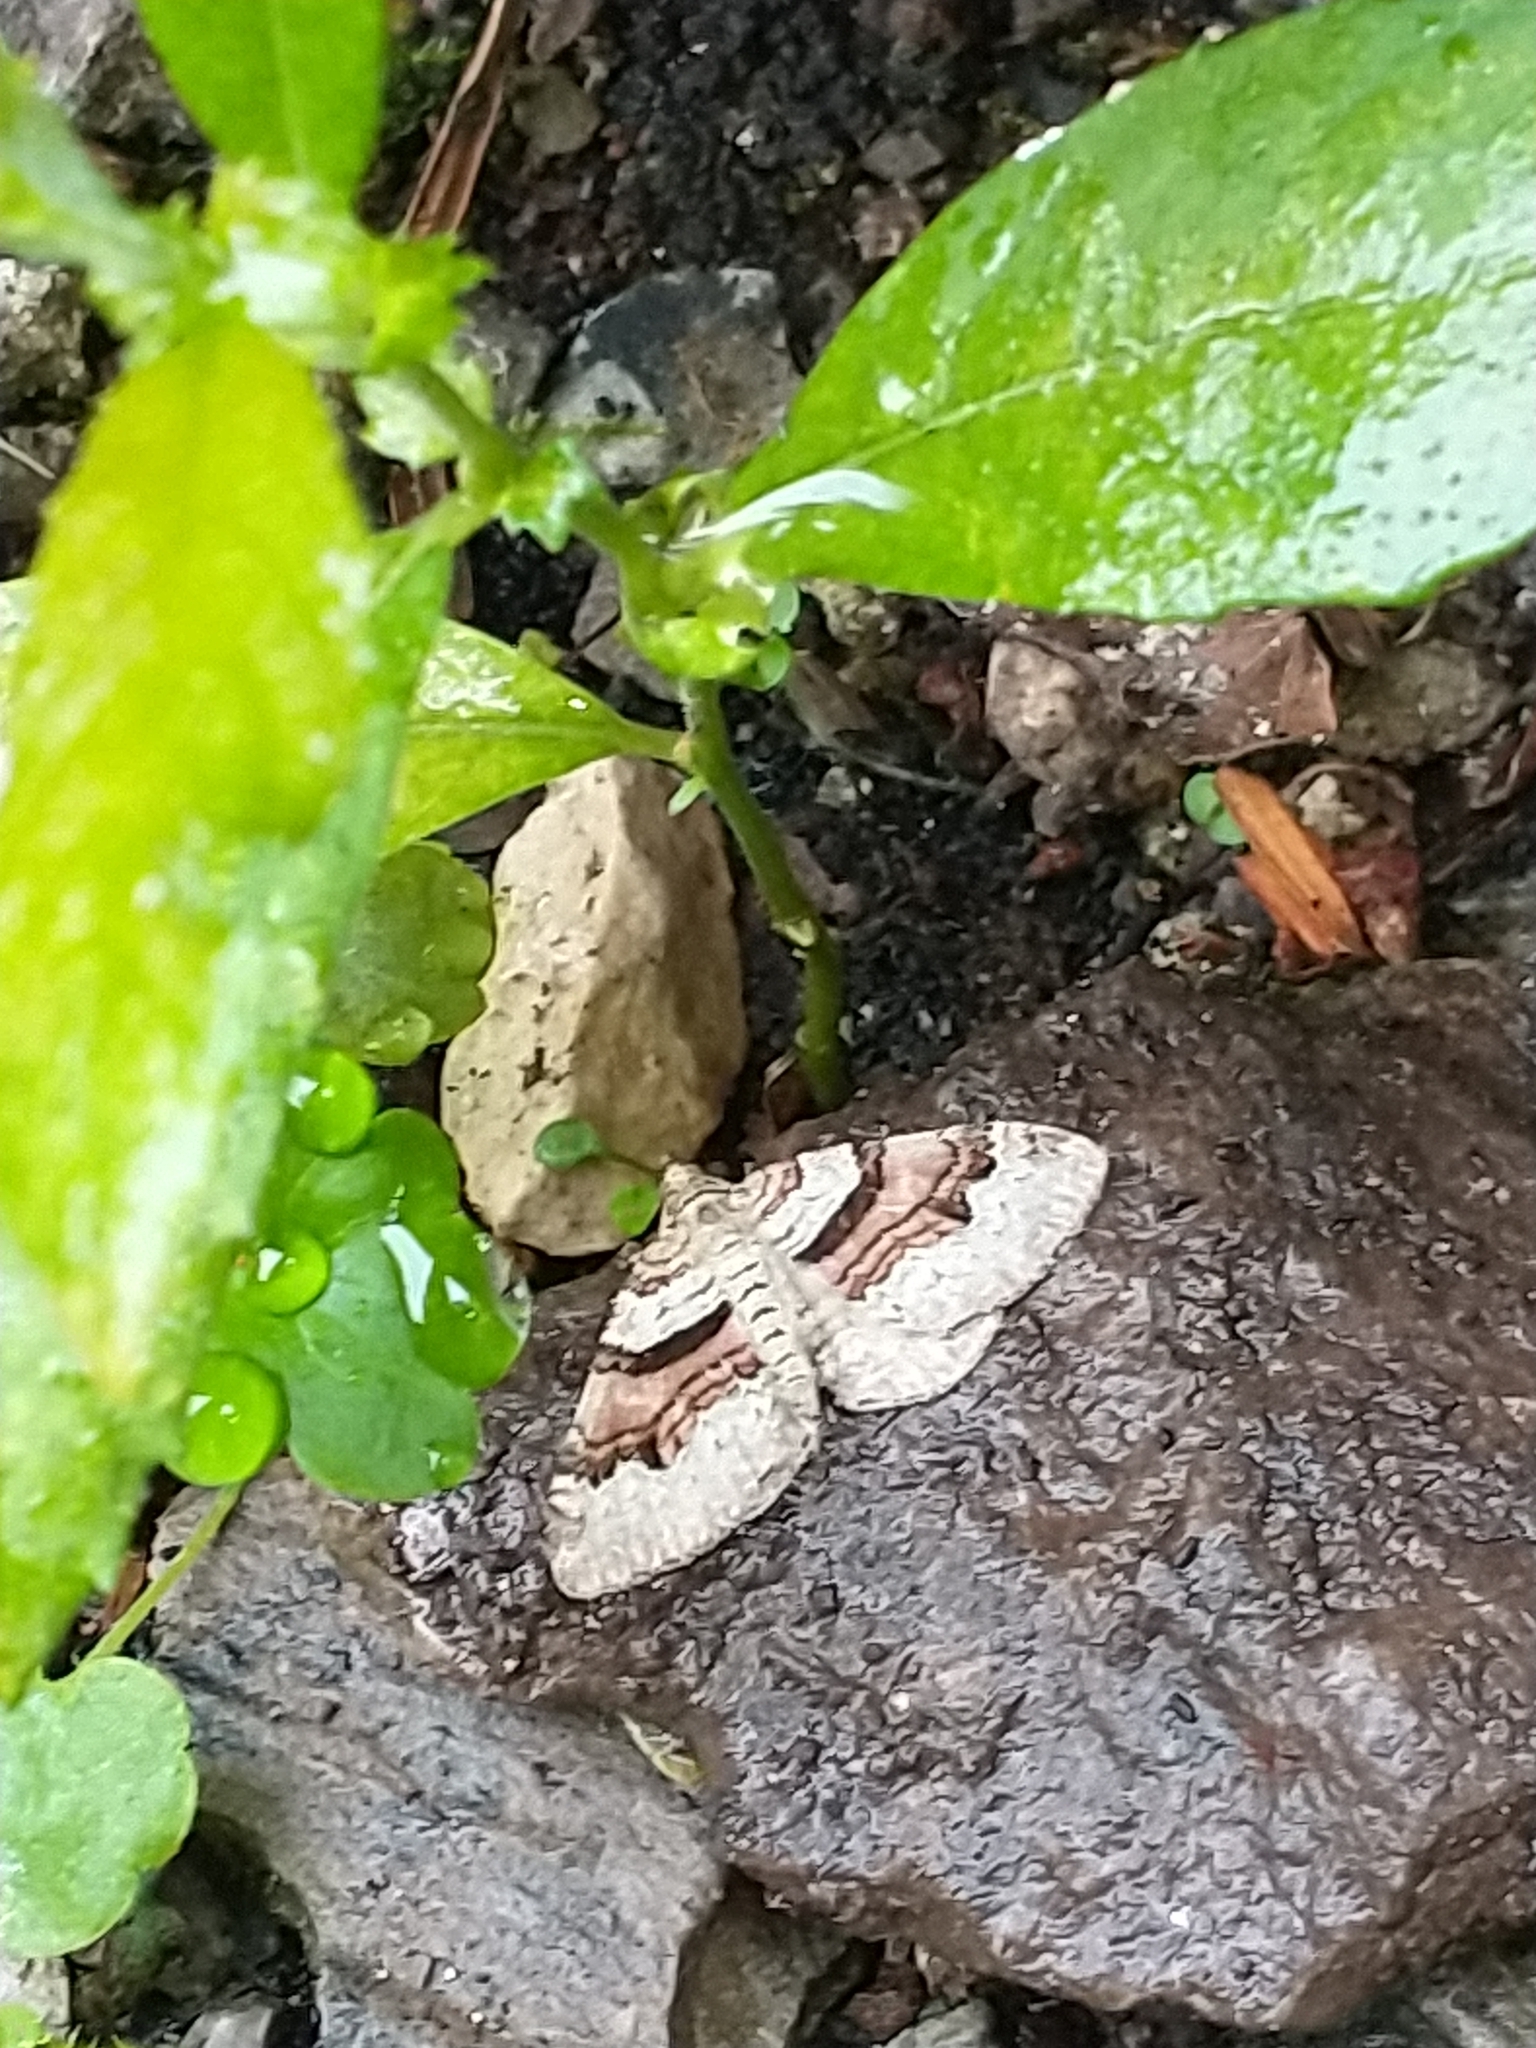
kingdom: Animalia
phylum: Arthropoda
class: Insecta
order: Lepidoptera
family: Geometridae
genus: Xanthorhoe
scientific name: Xanthorhoe designata
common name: Flame carpet
